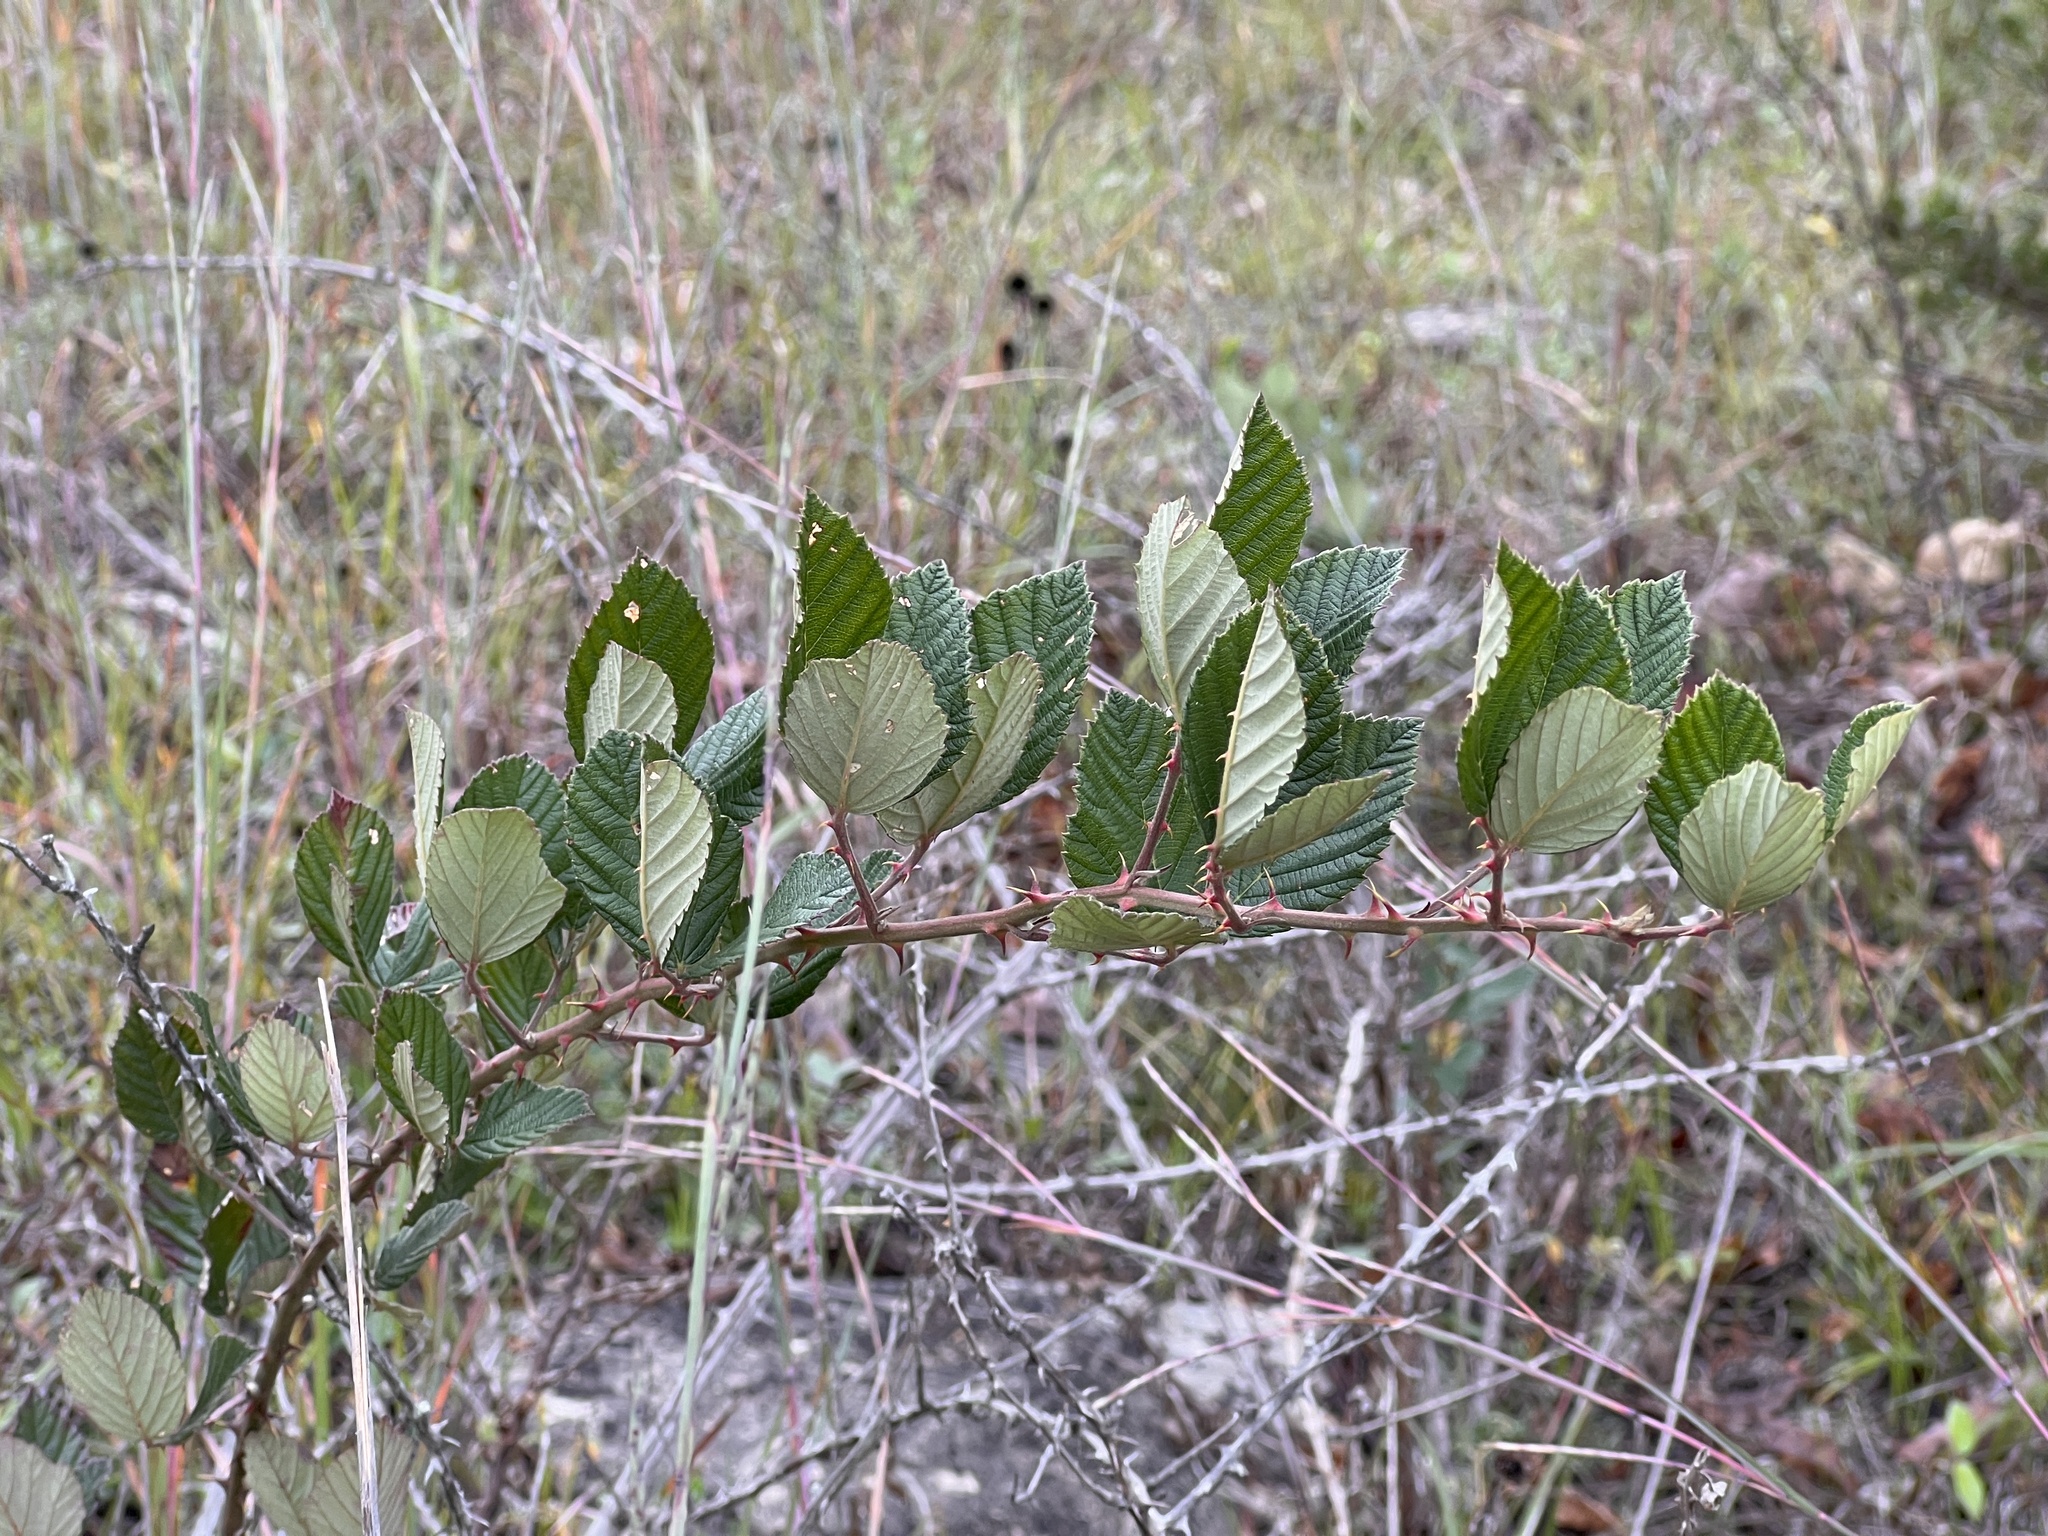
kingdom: Plantae
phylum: Tracheophyta
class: Magnoliopsida
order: Rosales
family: Rosaceae
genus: Rubus
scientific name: Rubus pascuus
